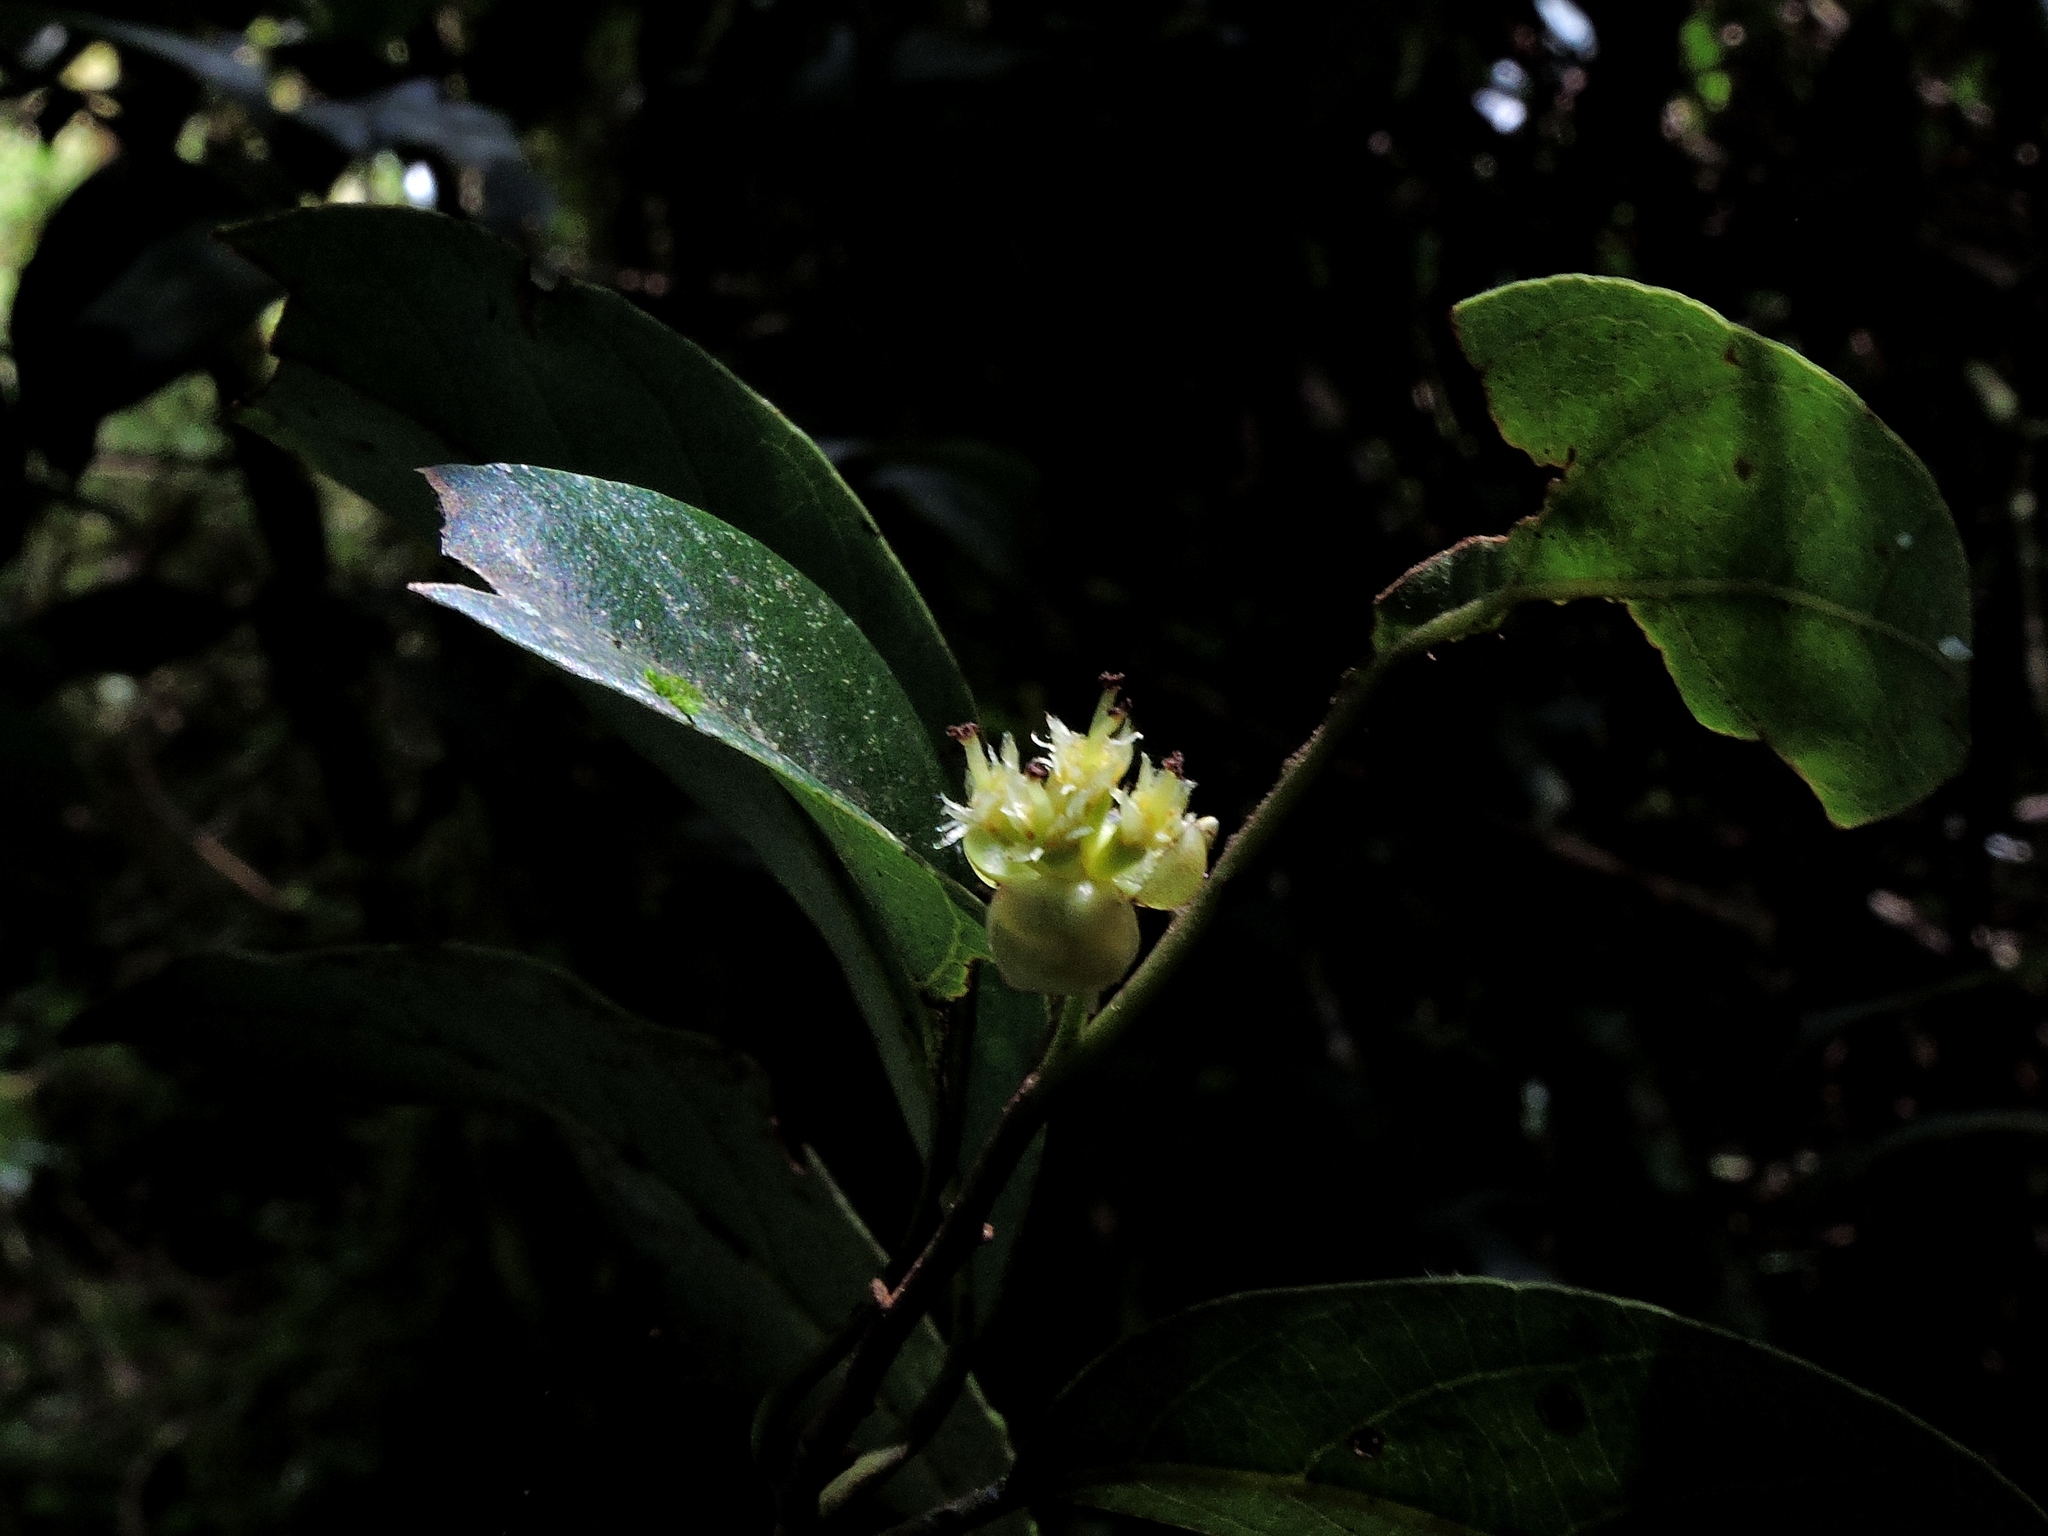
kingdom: Plantae
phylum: Tracheophyta
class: Magnoliopsida
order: Laurales
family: Lauraceae
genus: Litsea
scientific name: Litsea morrisonensis
